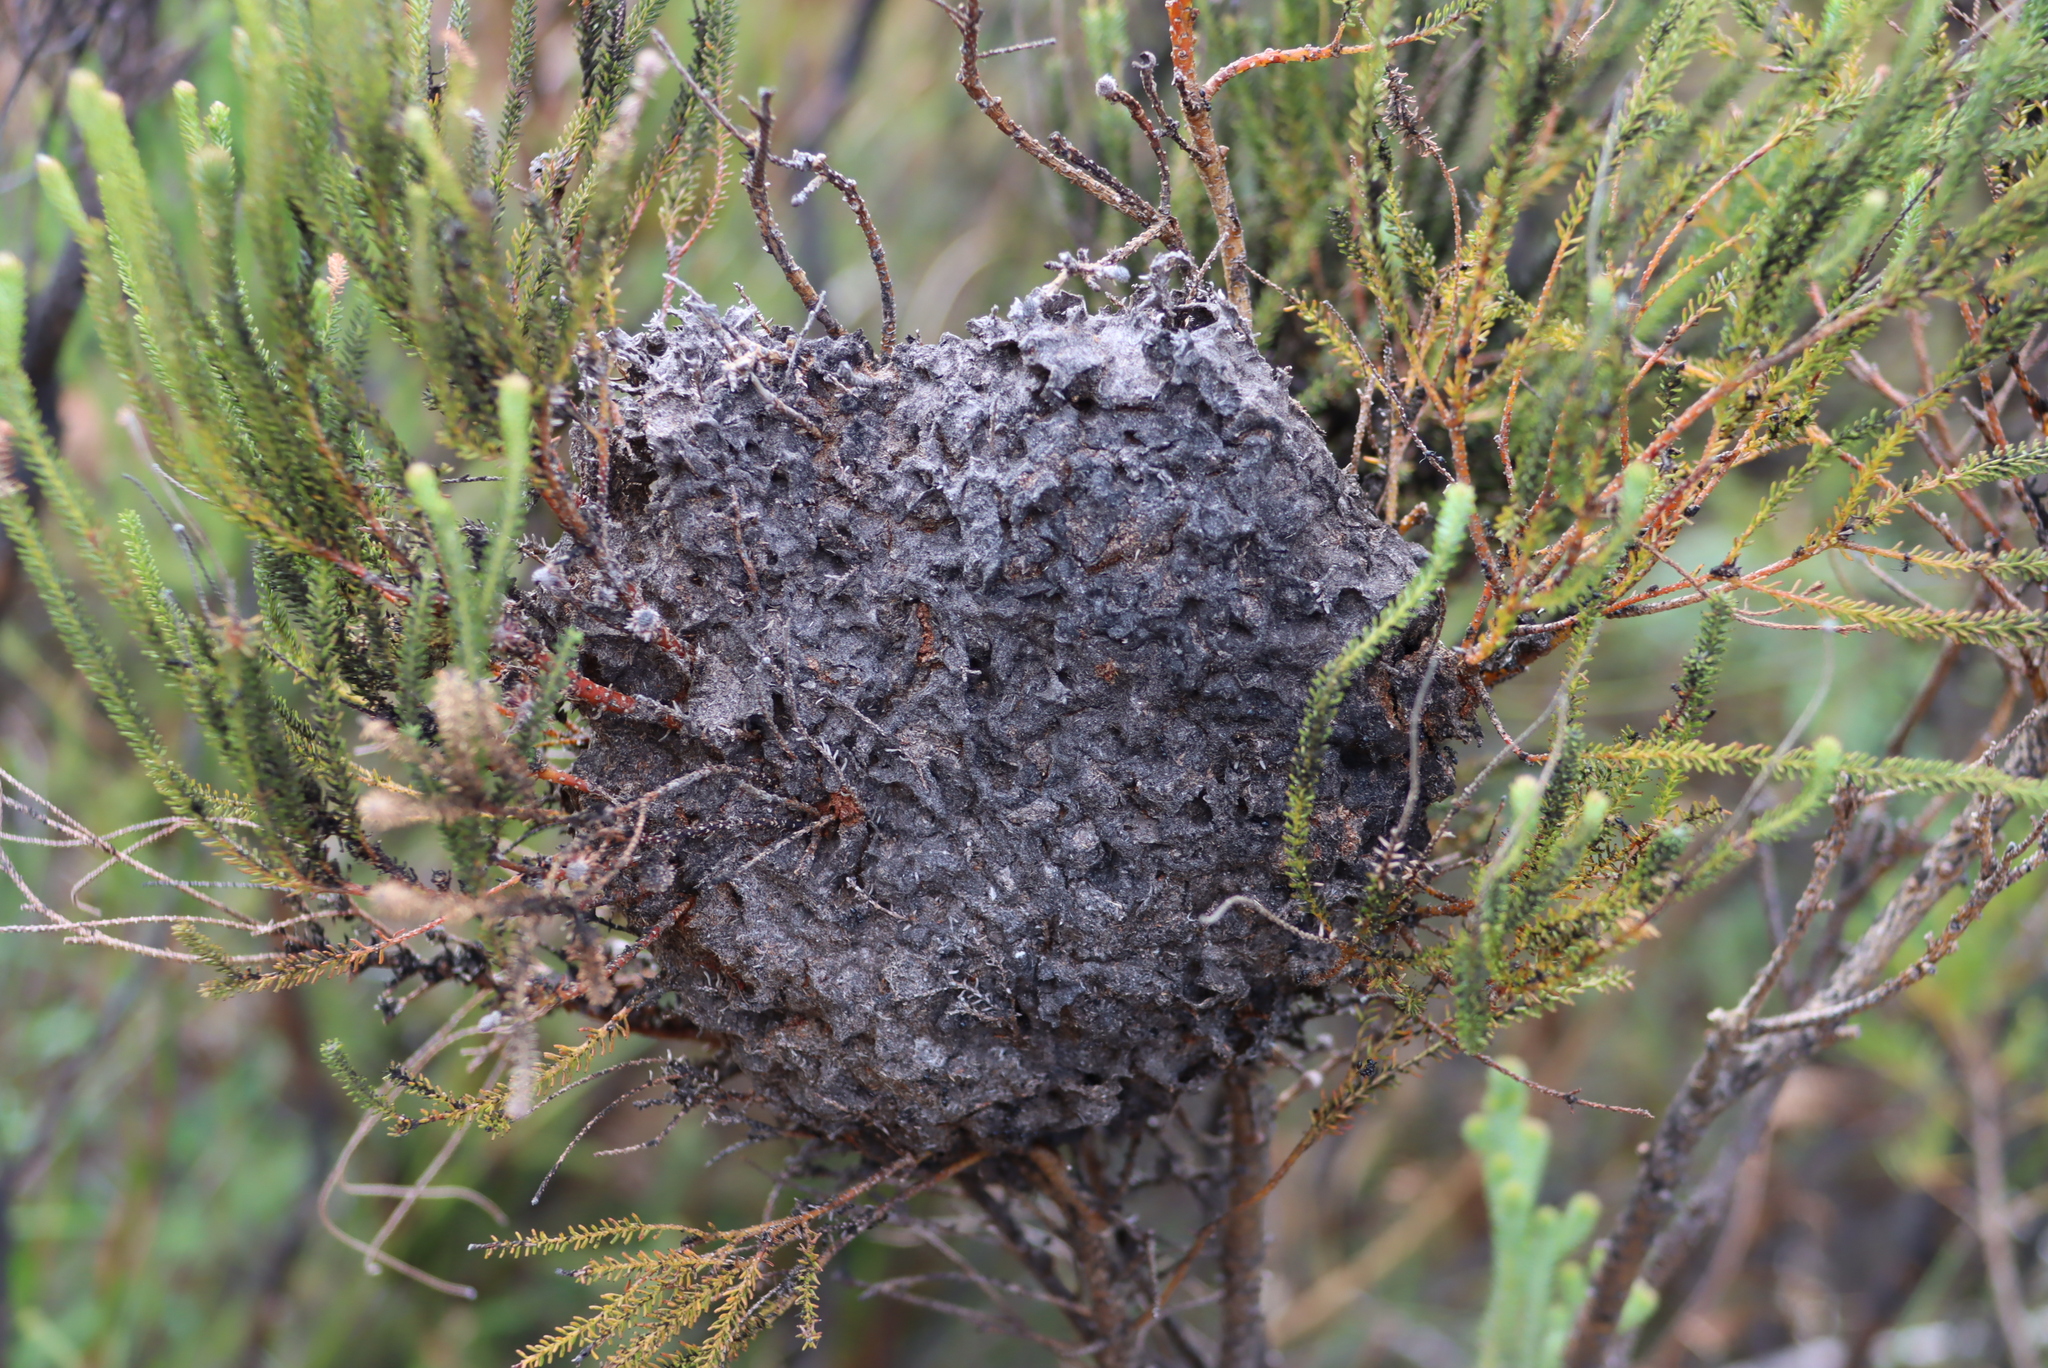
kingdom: Animalia
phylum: Arthropoda
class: Insecta
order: Hymenoptera
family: Formicidae
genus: Crematogaster
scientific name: Crematogaster peringueyi
